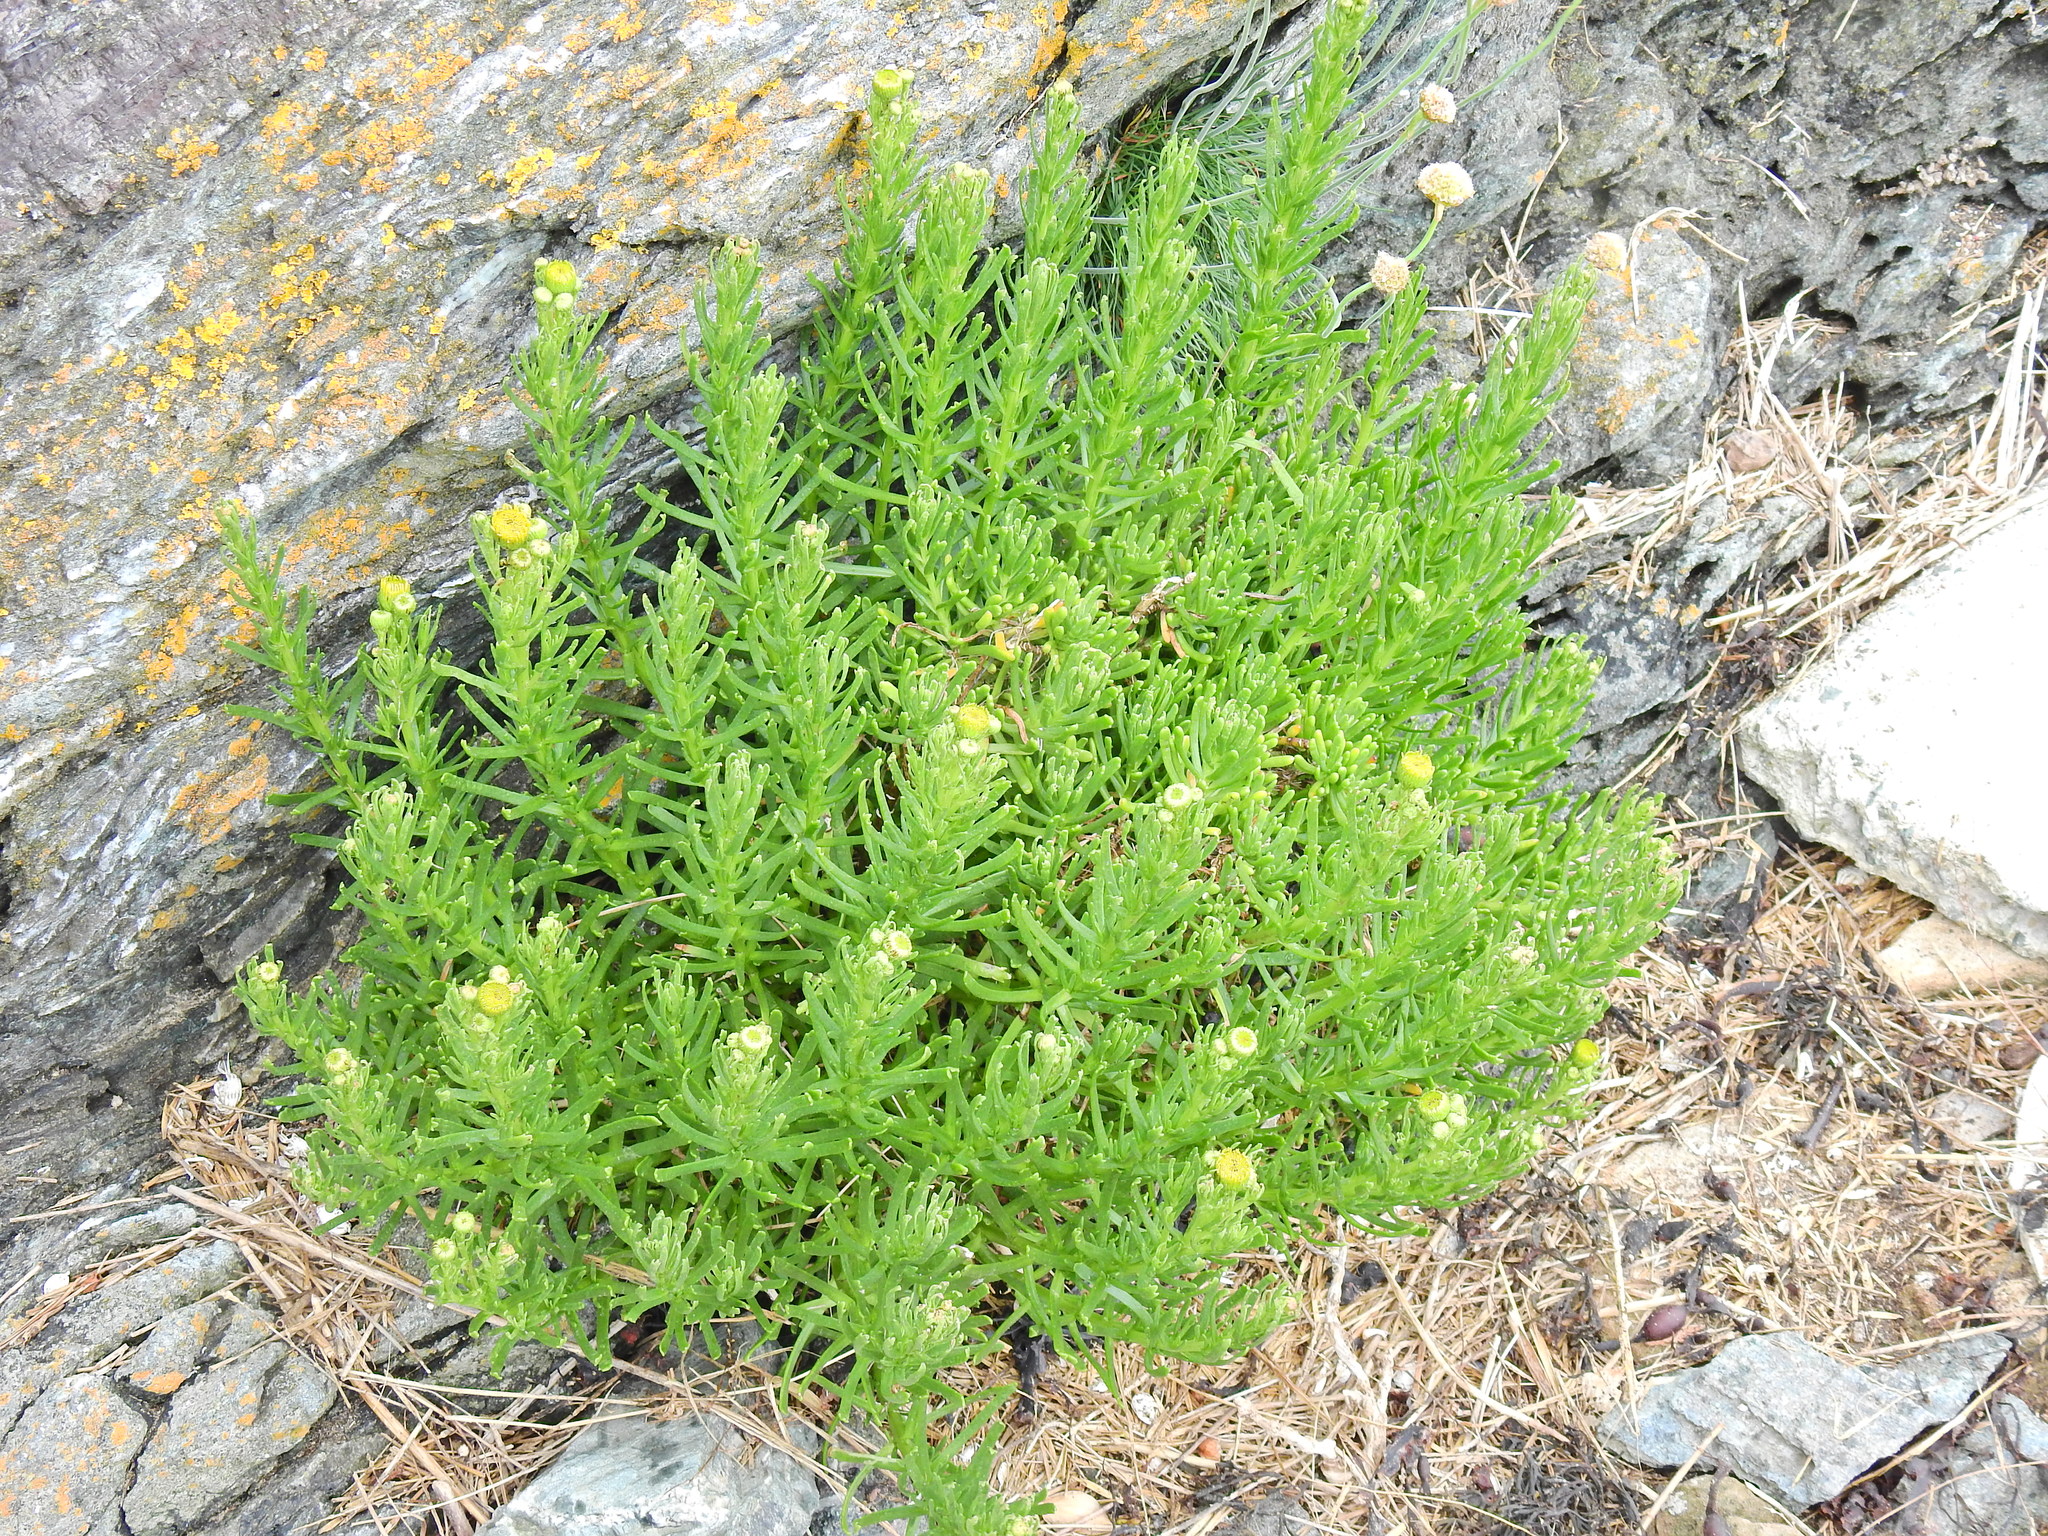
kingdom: Plantae
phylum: Tracheophyta
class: Magnoliopsida
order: Asterales
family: Asteraceae
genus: Limbarda
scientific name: Limbarda crithmoides
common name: Golden samphire
